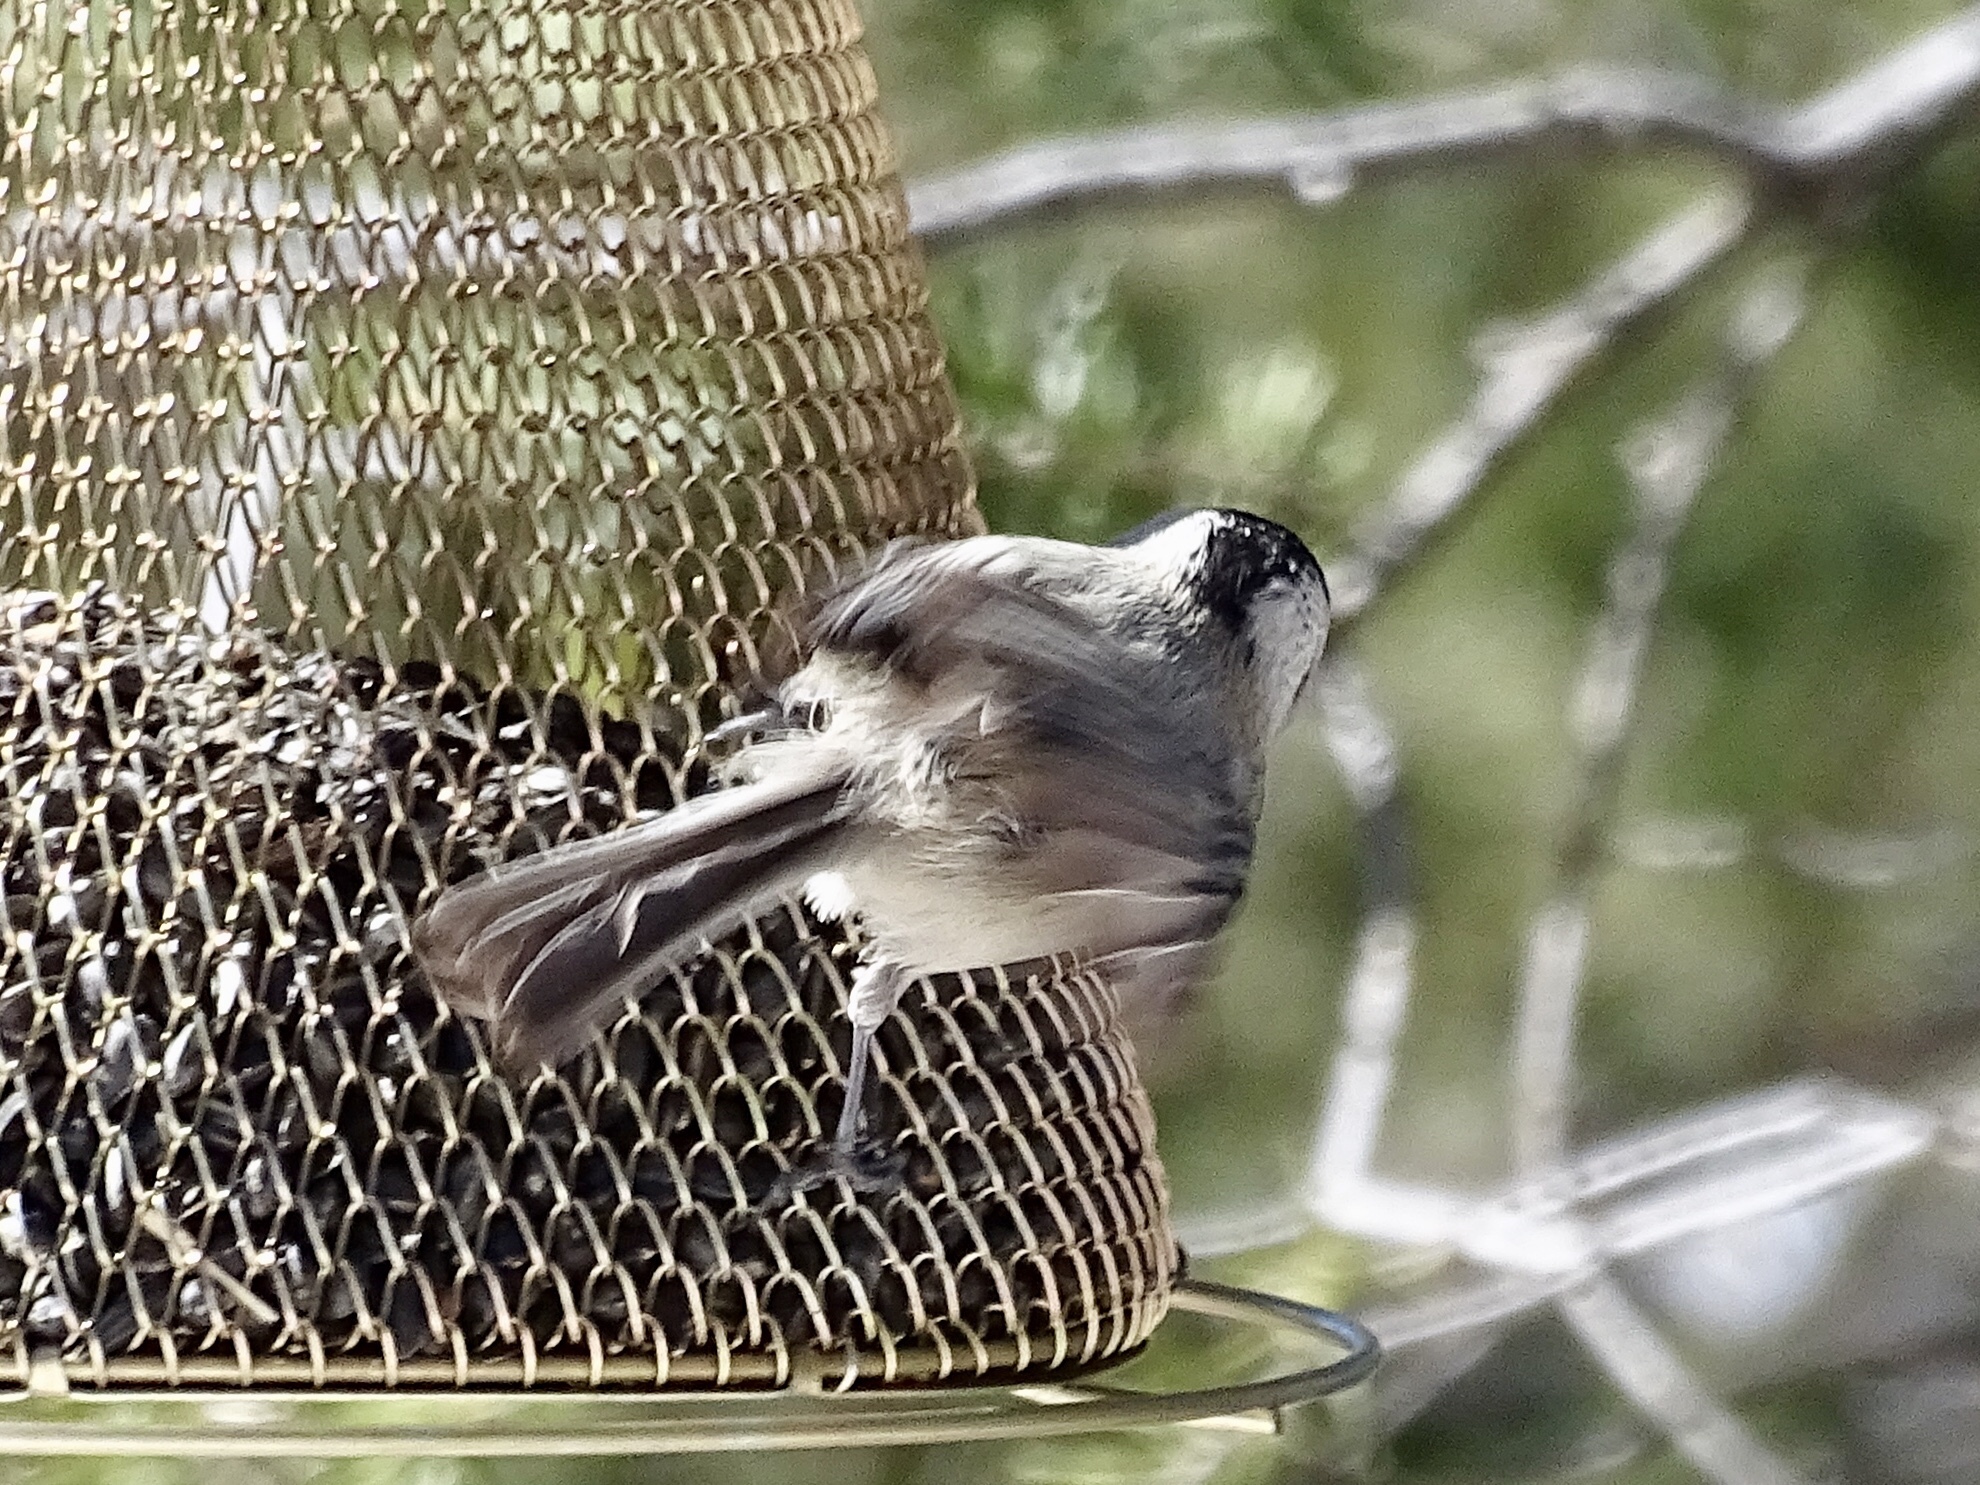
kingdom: Animalia
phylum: Chordata
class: Aves
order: Passeriformes
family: Paridae
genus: Poecile
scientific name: Poecile gambeli
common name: Mountain chickadee
